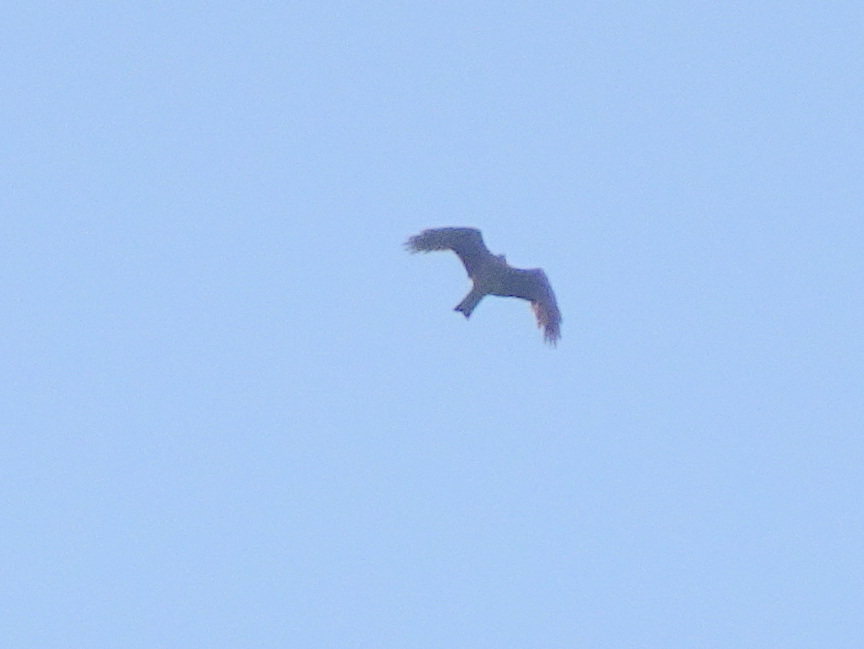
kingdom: Animalia
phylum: Chordata
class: Aves
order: Accipitriformes
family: Accipitridae
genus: Milvus
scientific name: Milvus migrans
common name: Black kite
